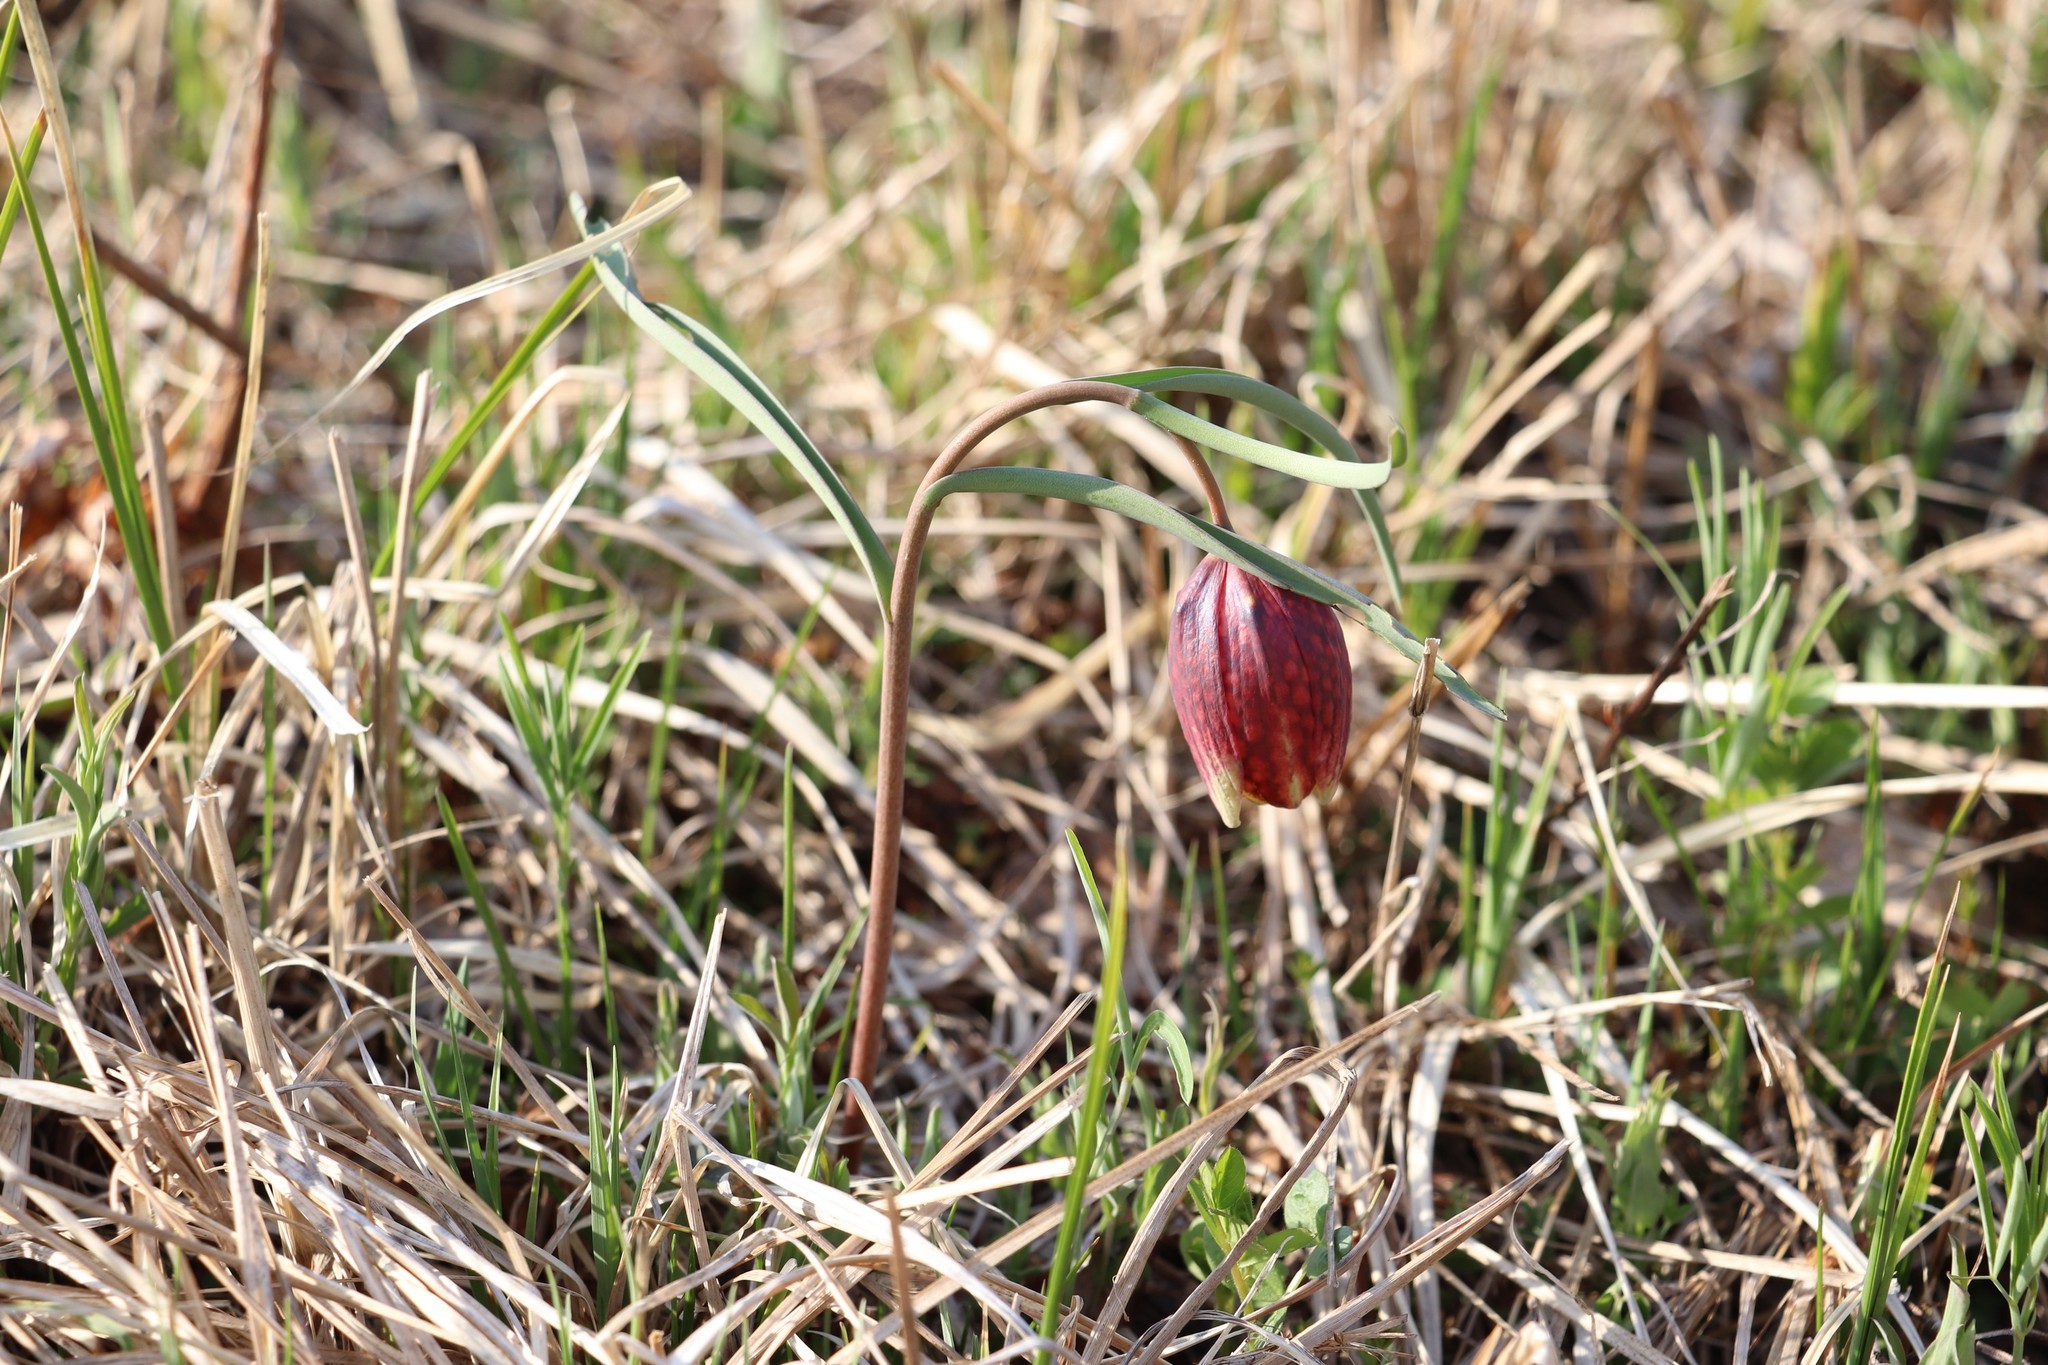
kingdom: Plantae
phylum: Tracheophyta
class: Liliopsida
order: Liliales
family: Liliaceae
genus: Fritillaria
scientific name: Fritillaria meleagris
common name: Fritillary
